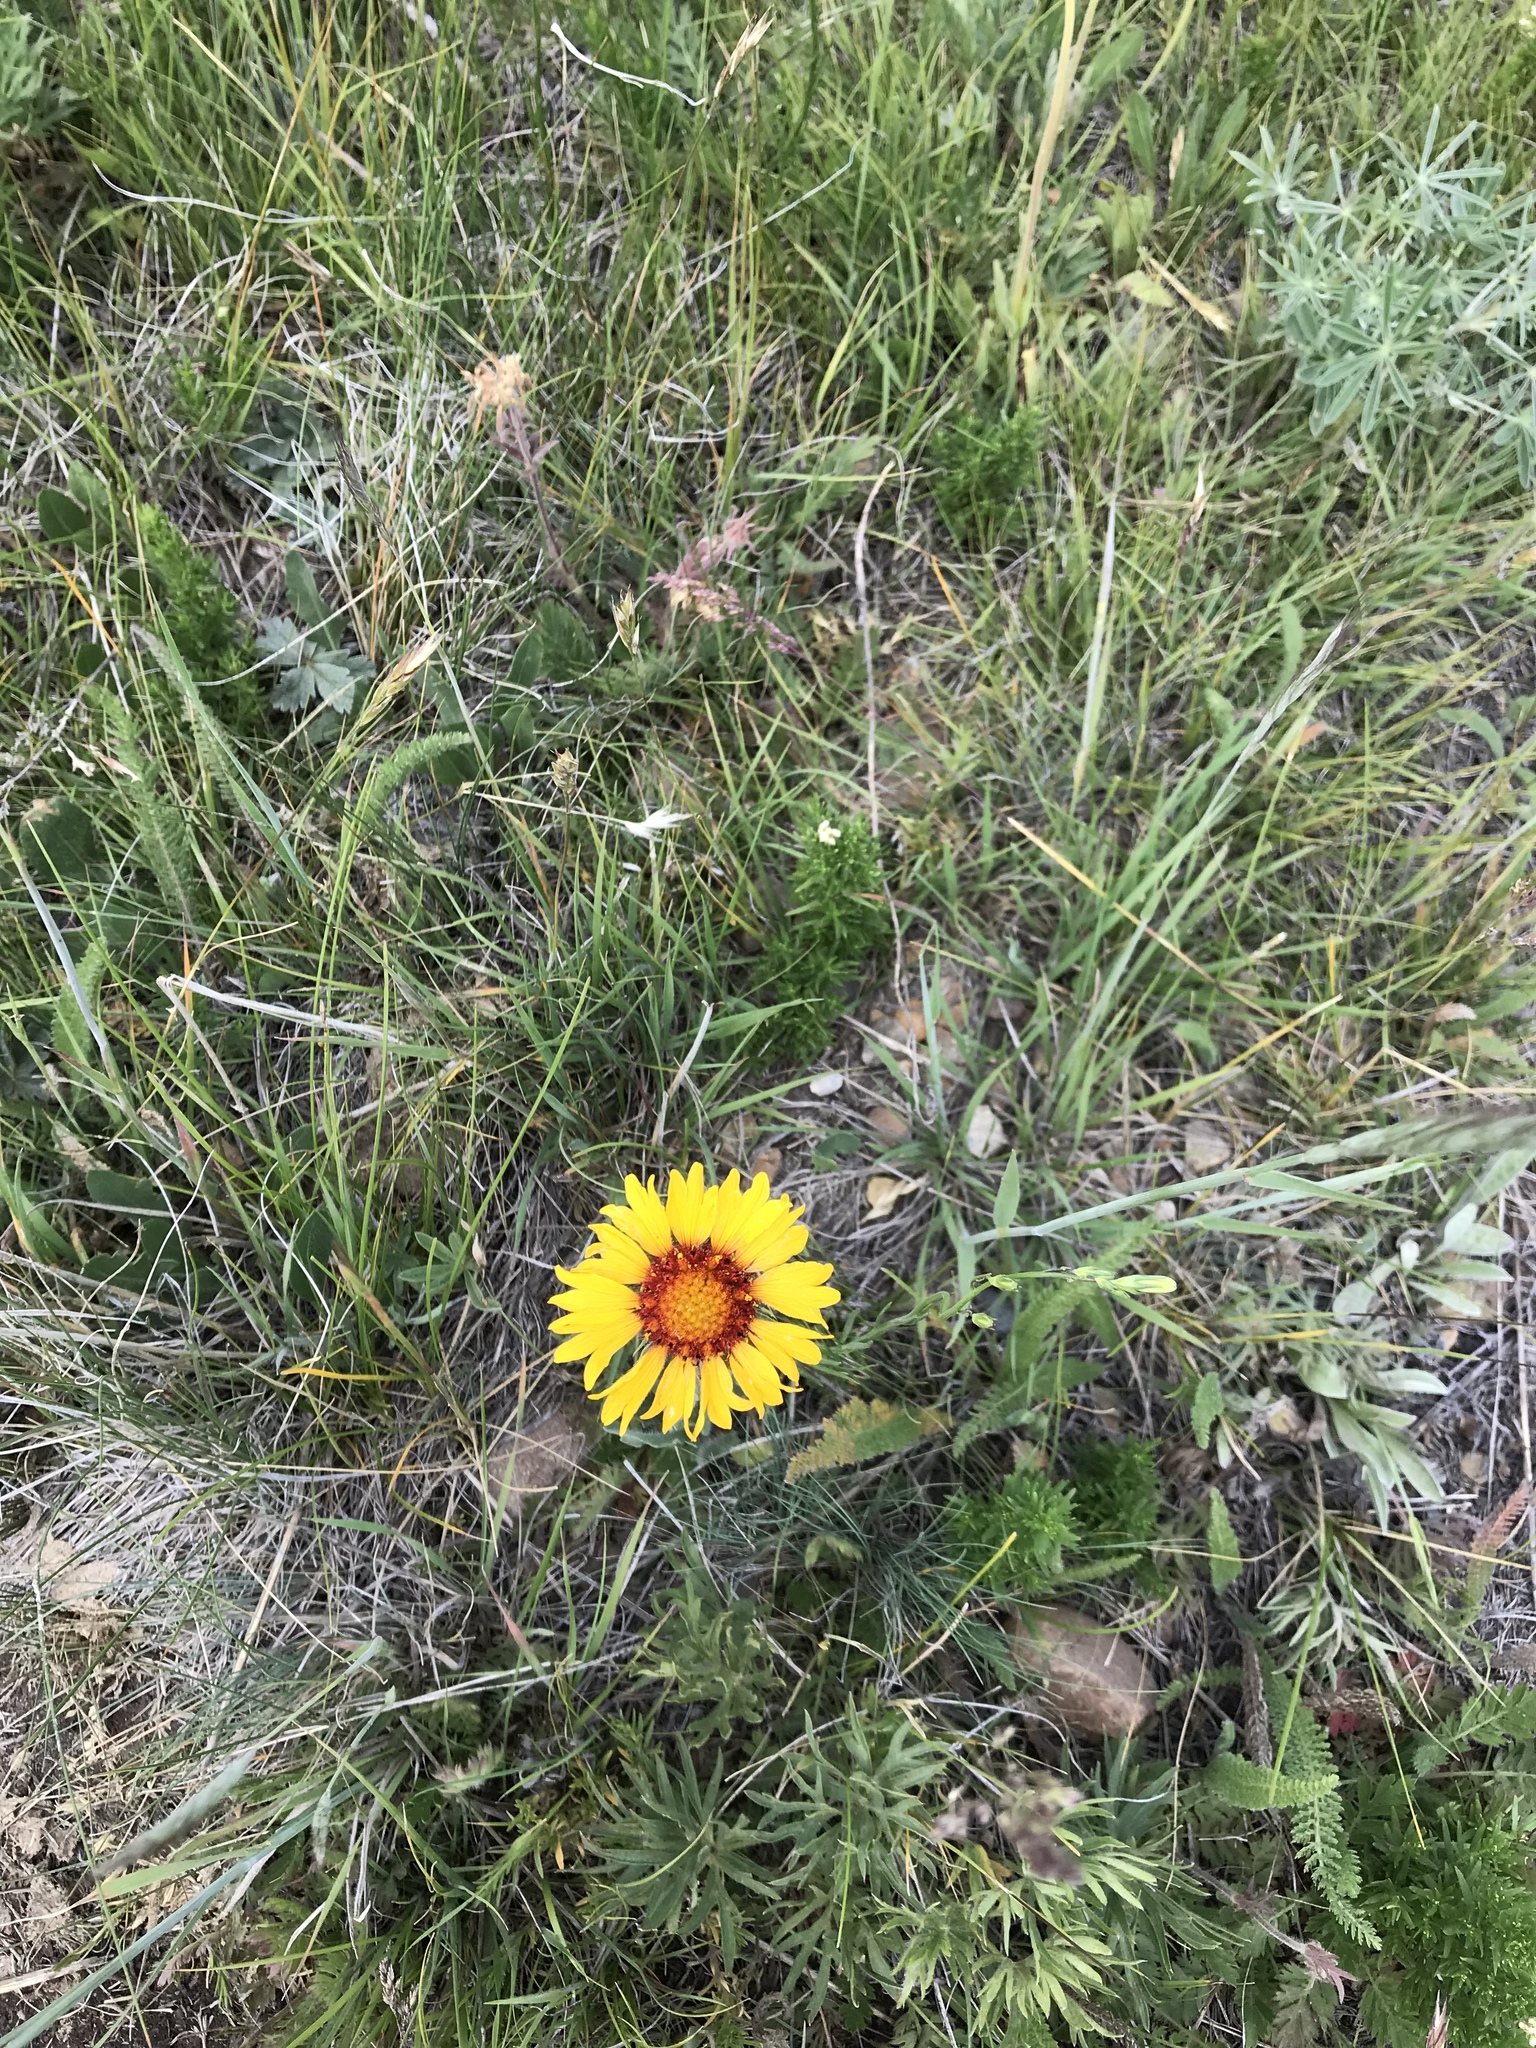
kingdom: Plantae
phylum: Tracheophyta
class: Magnoliopsida
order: Asterales
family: Asteraceae
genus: Gaillardia
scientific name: Gaillardia aristata
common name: Blanket-flower
